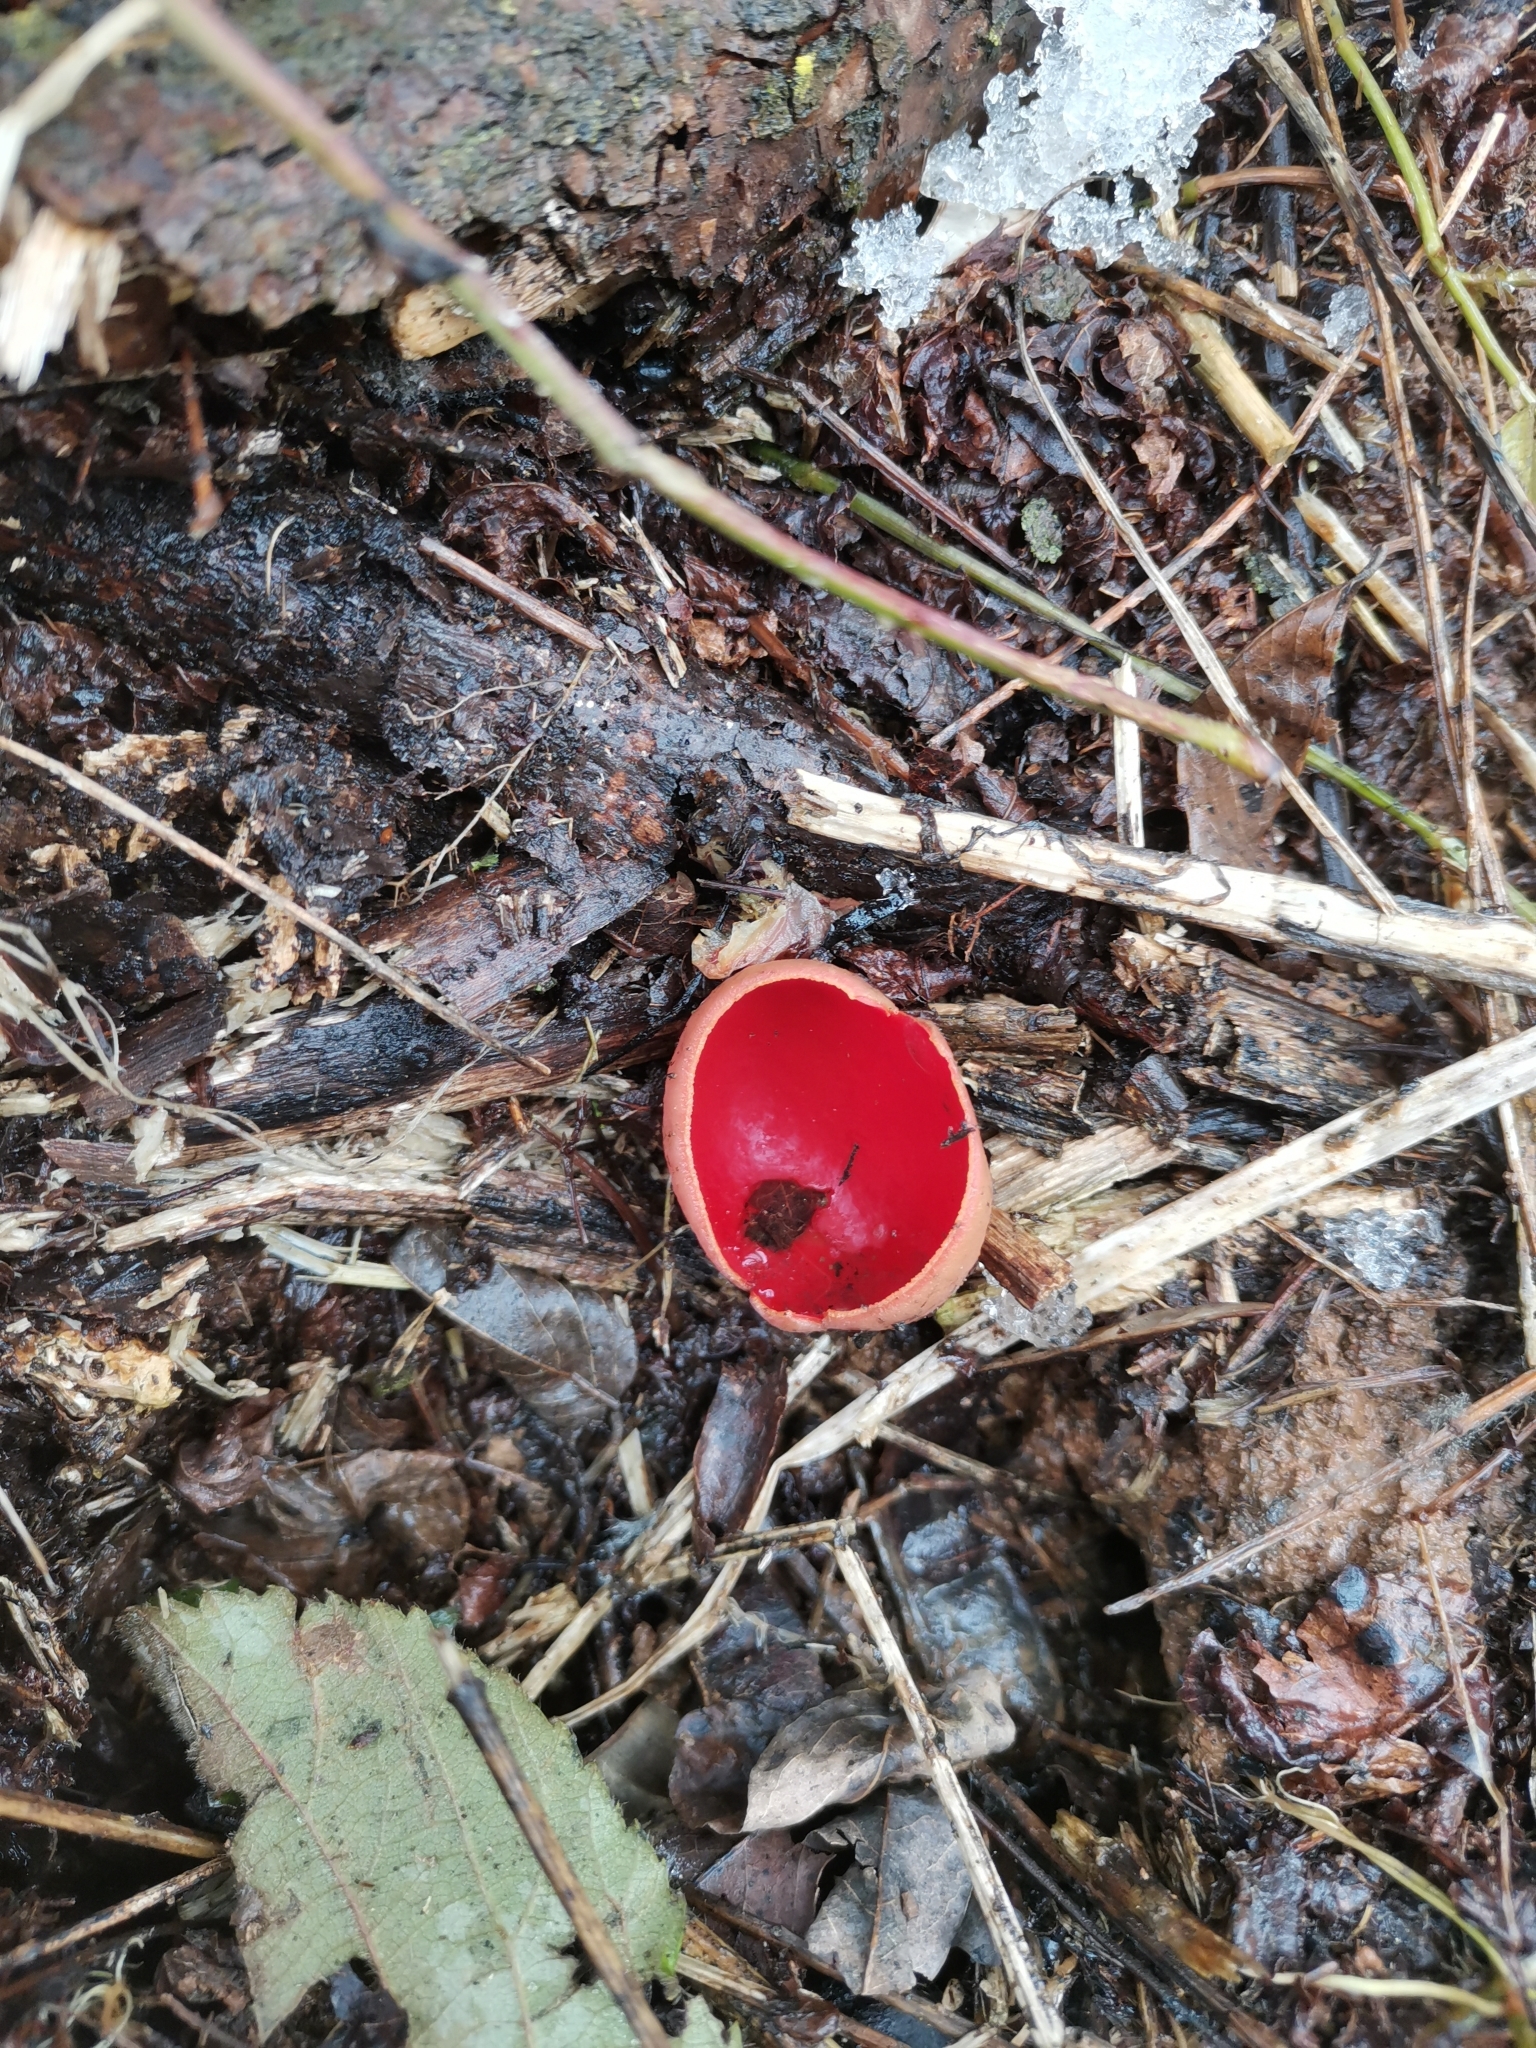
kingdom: Fungi
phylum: Ascomycota
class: Pezizomycetes
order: Pezizales
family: Sarcoscyphaceae
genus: Sarcoscypha
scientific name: Sarcoscypha
